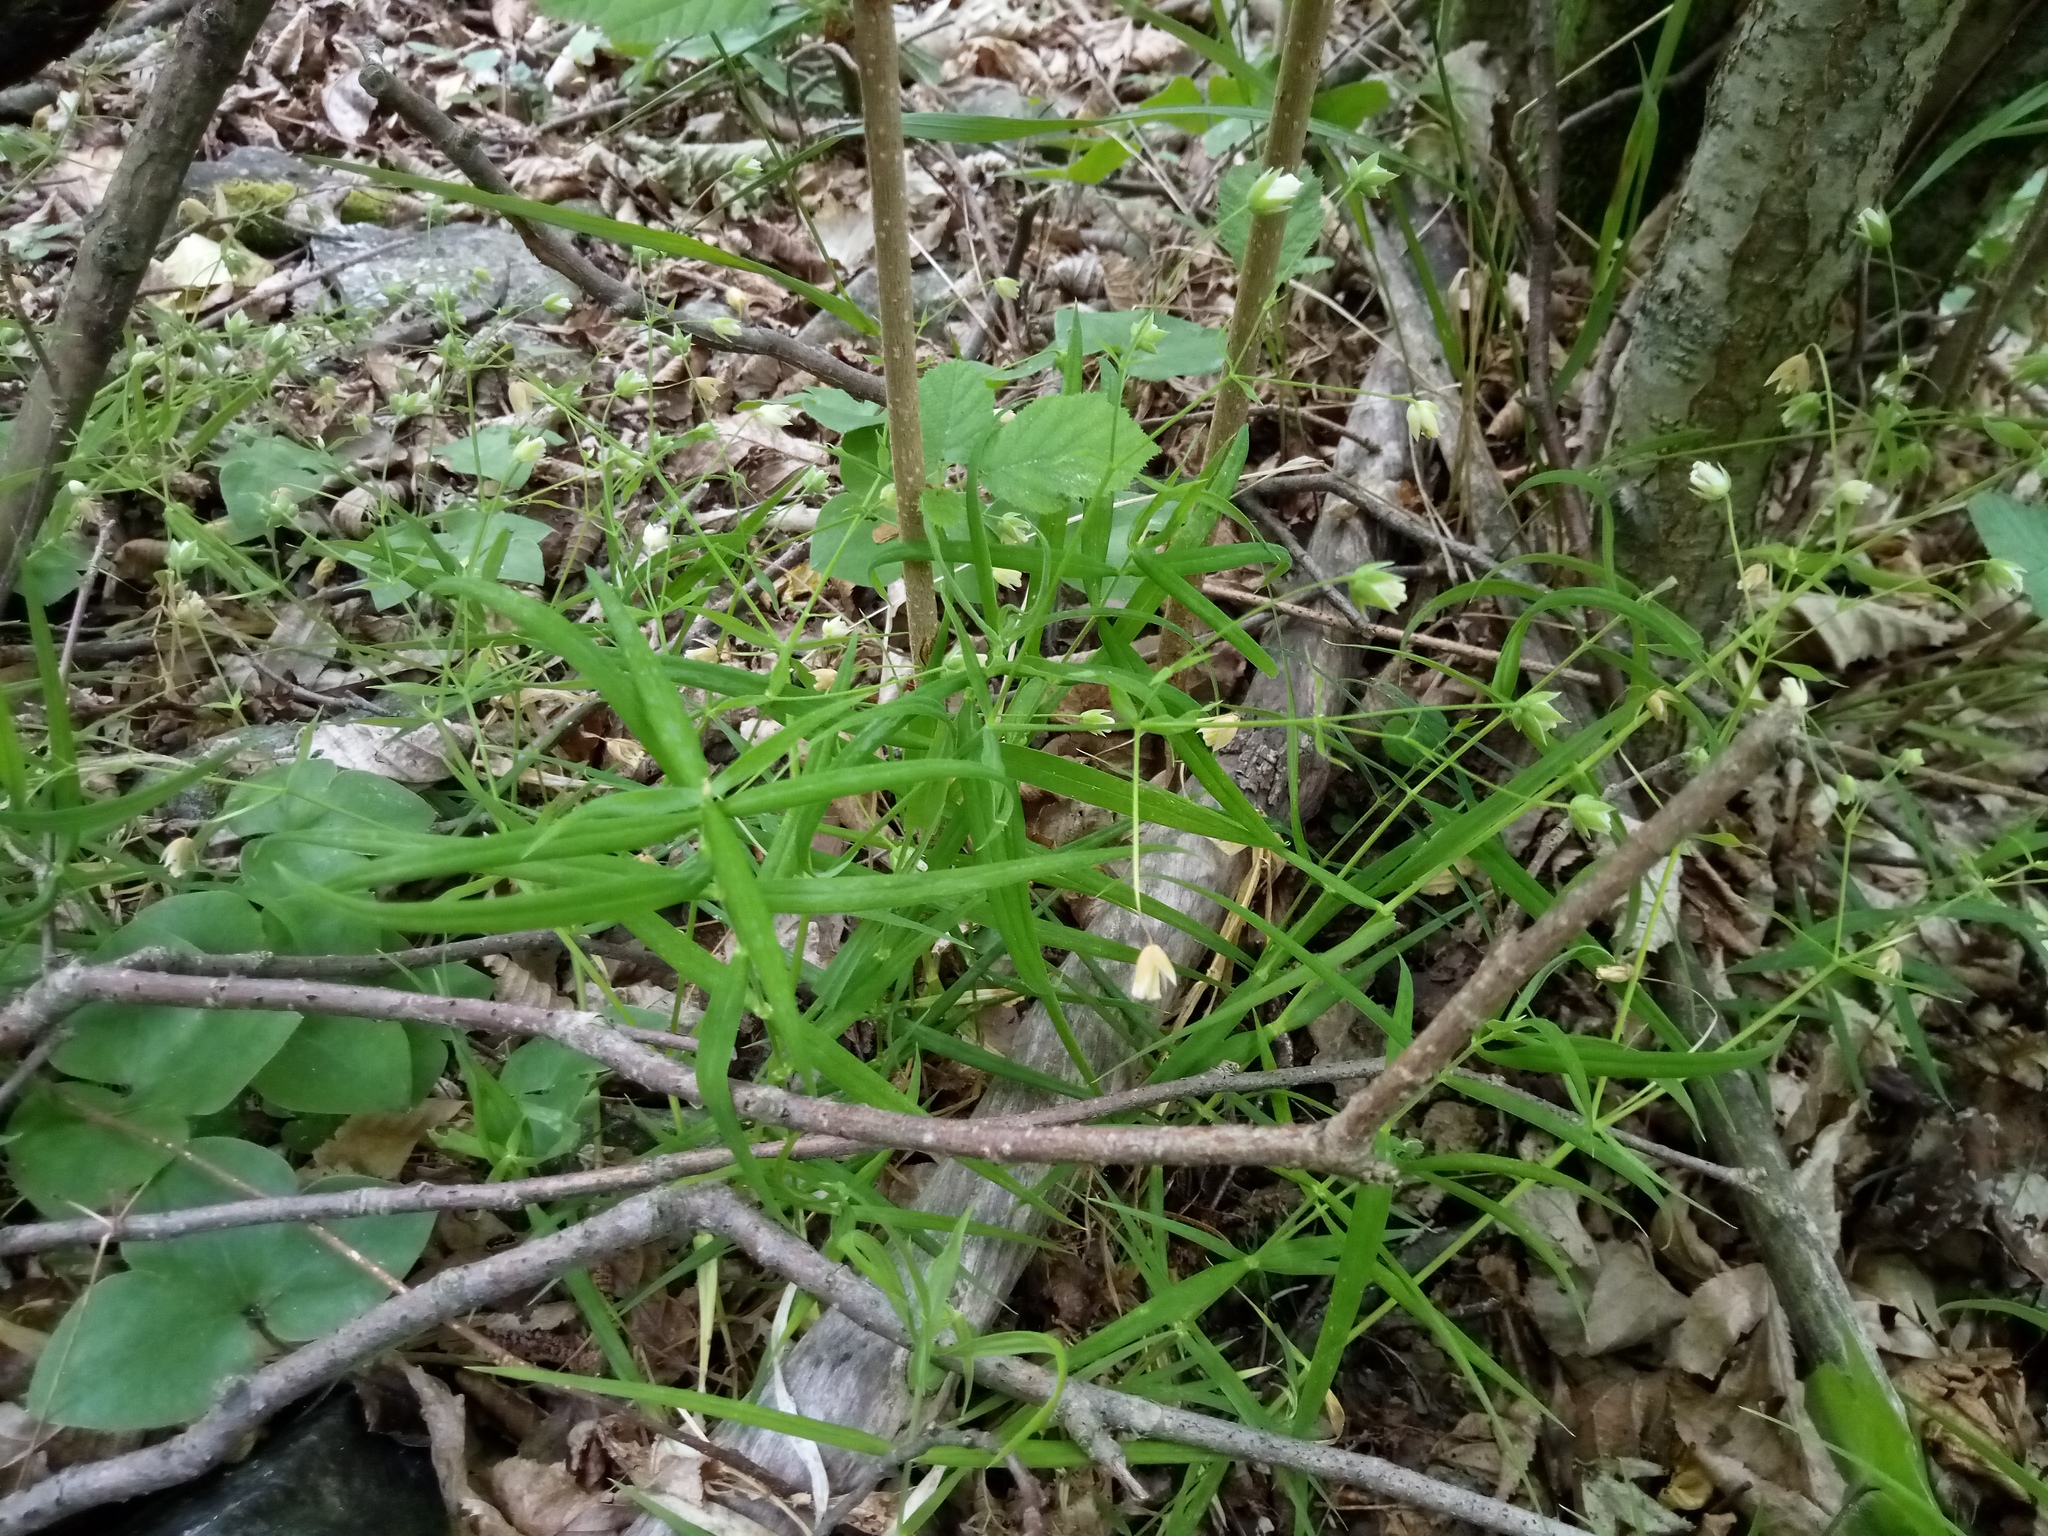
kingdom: Plantae
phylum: Tracheophyta
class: Magnoliopsida
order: Caryophyllales
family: Caryophyllaceae
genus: Rabelera
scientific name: Rabelera holostea
